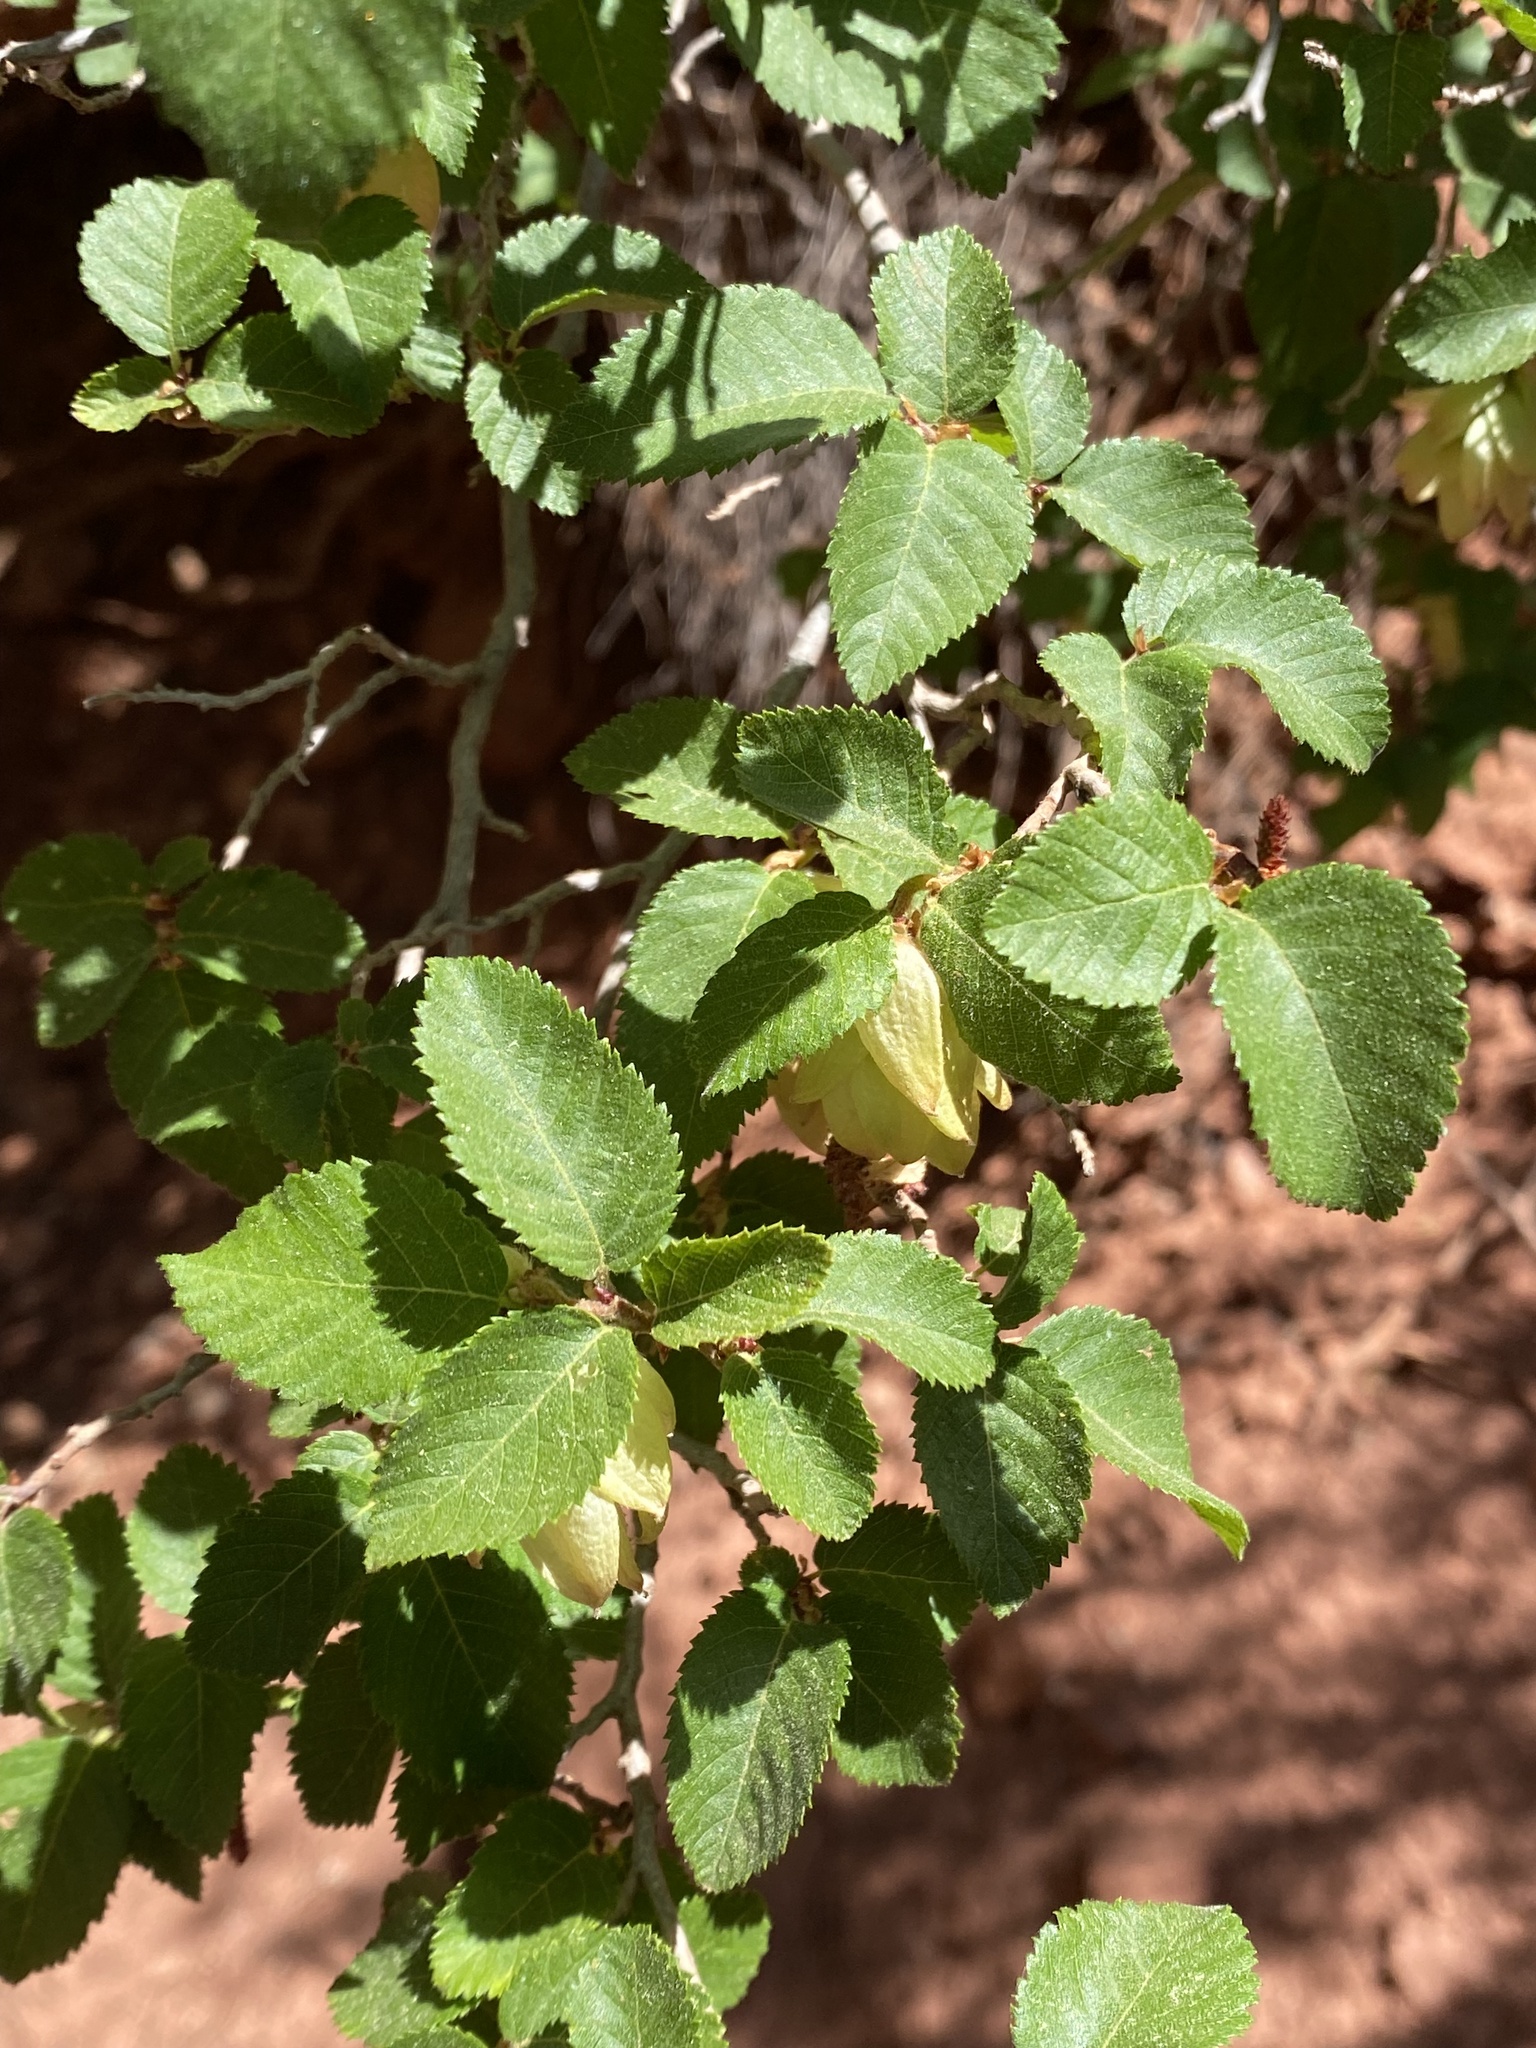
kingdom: Plantae
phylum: Tracheophyta
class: Magnoliopsida
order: Fagales
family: Betulaceae
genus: Ostrya
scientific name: Ostrya knowltonii
